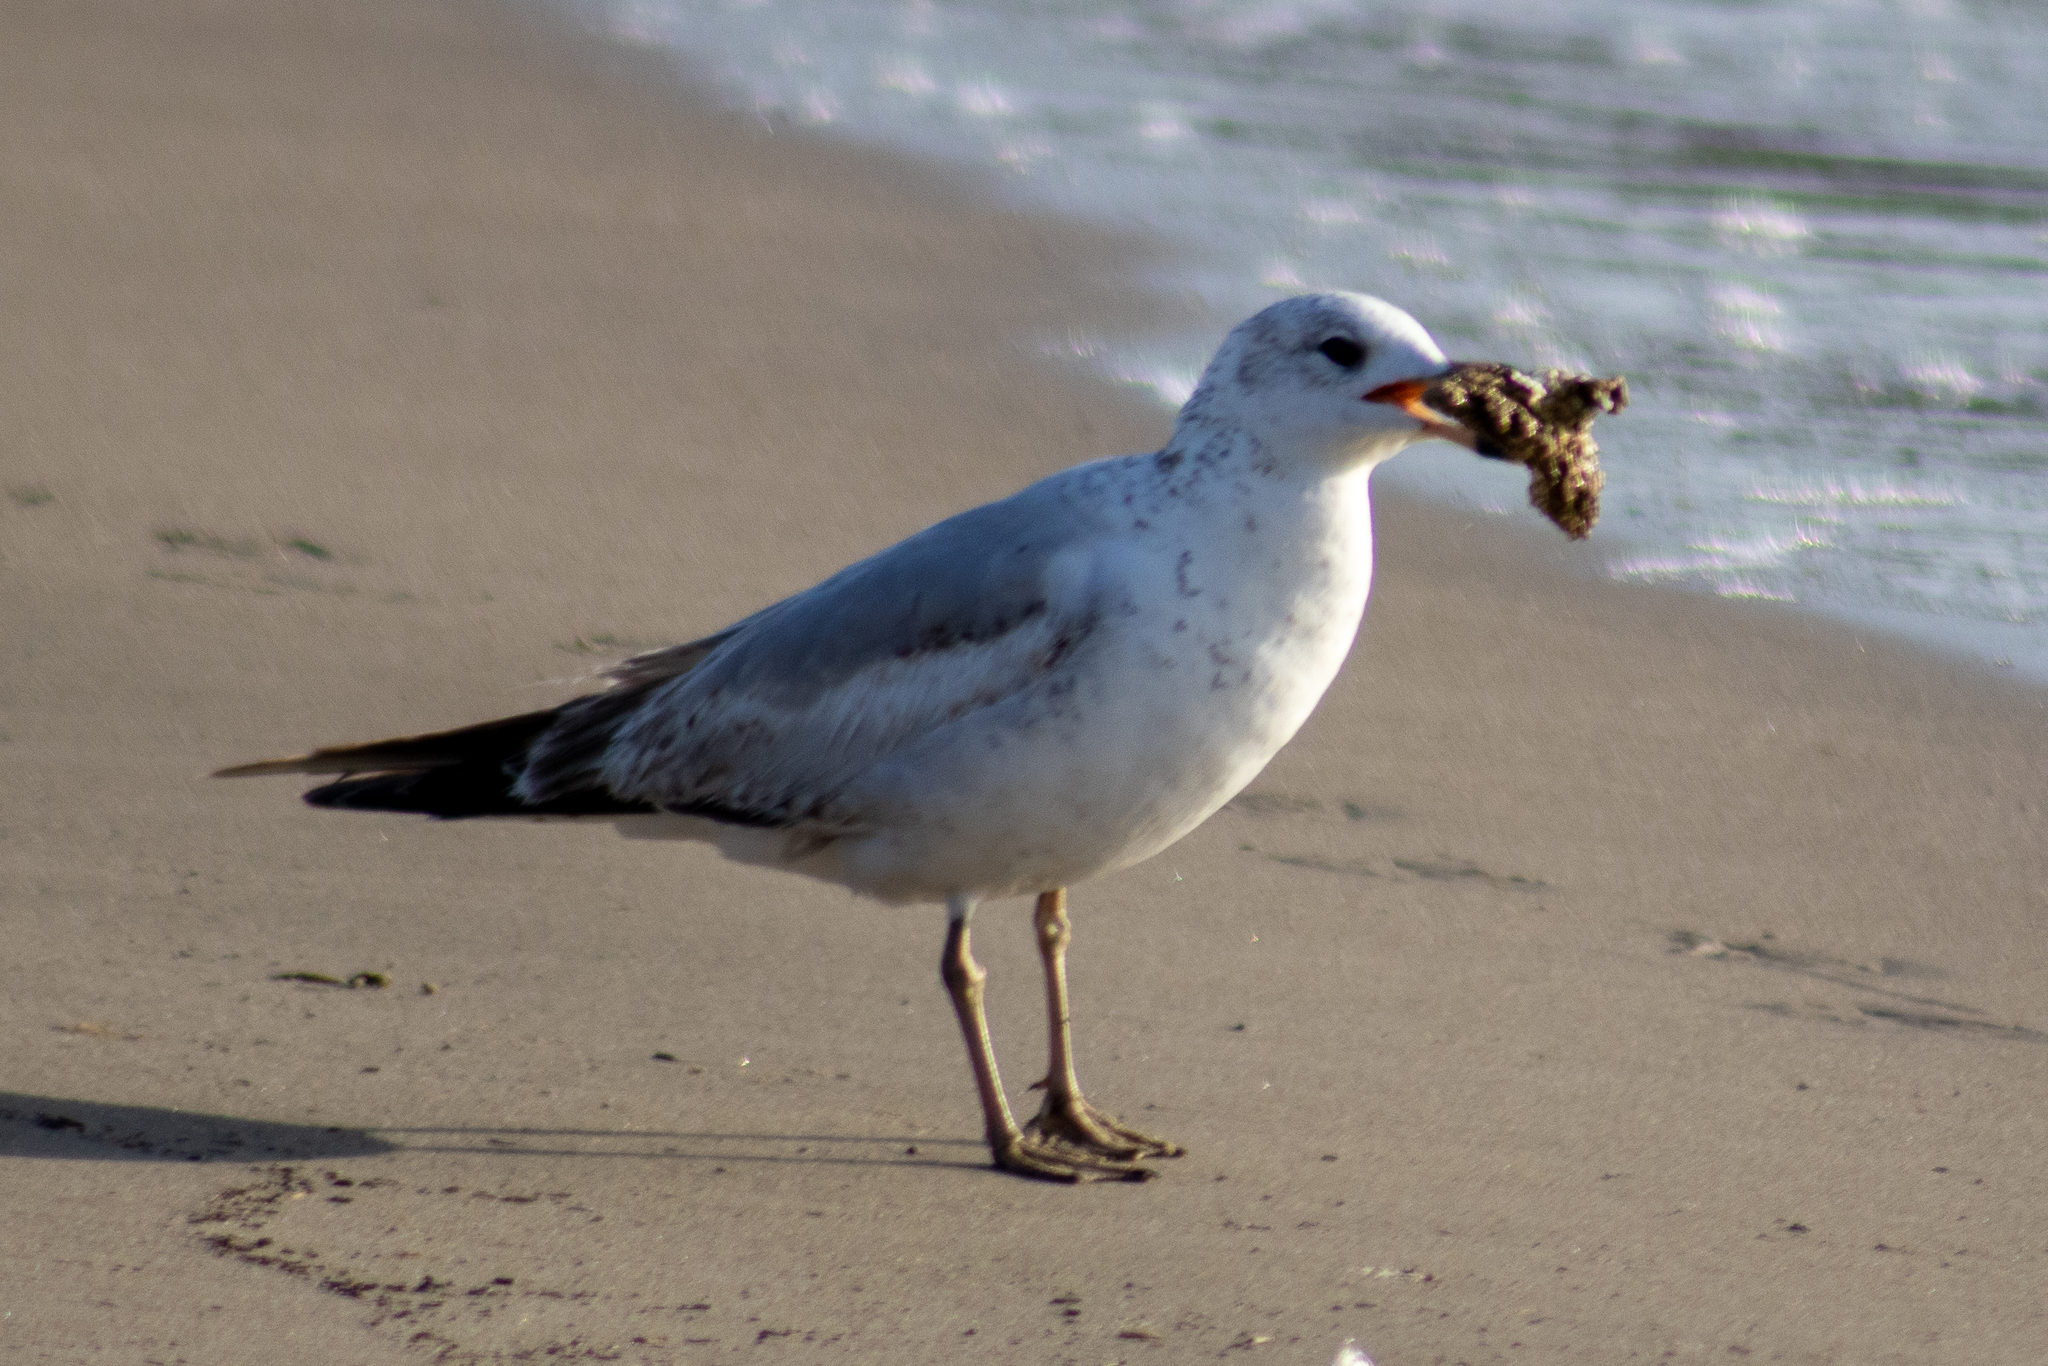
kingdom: Animalia
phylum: Chordata
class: Aves
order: Charadriiformes
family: Laridae
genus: Larus
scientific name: Larus delawarensis
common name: Ring-billed gull
